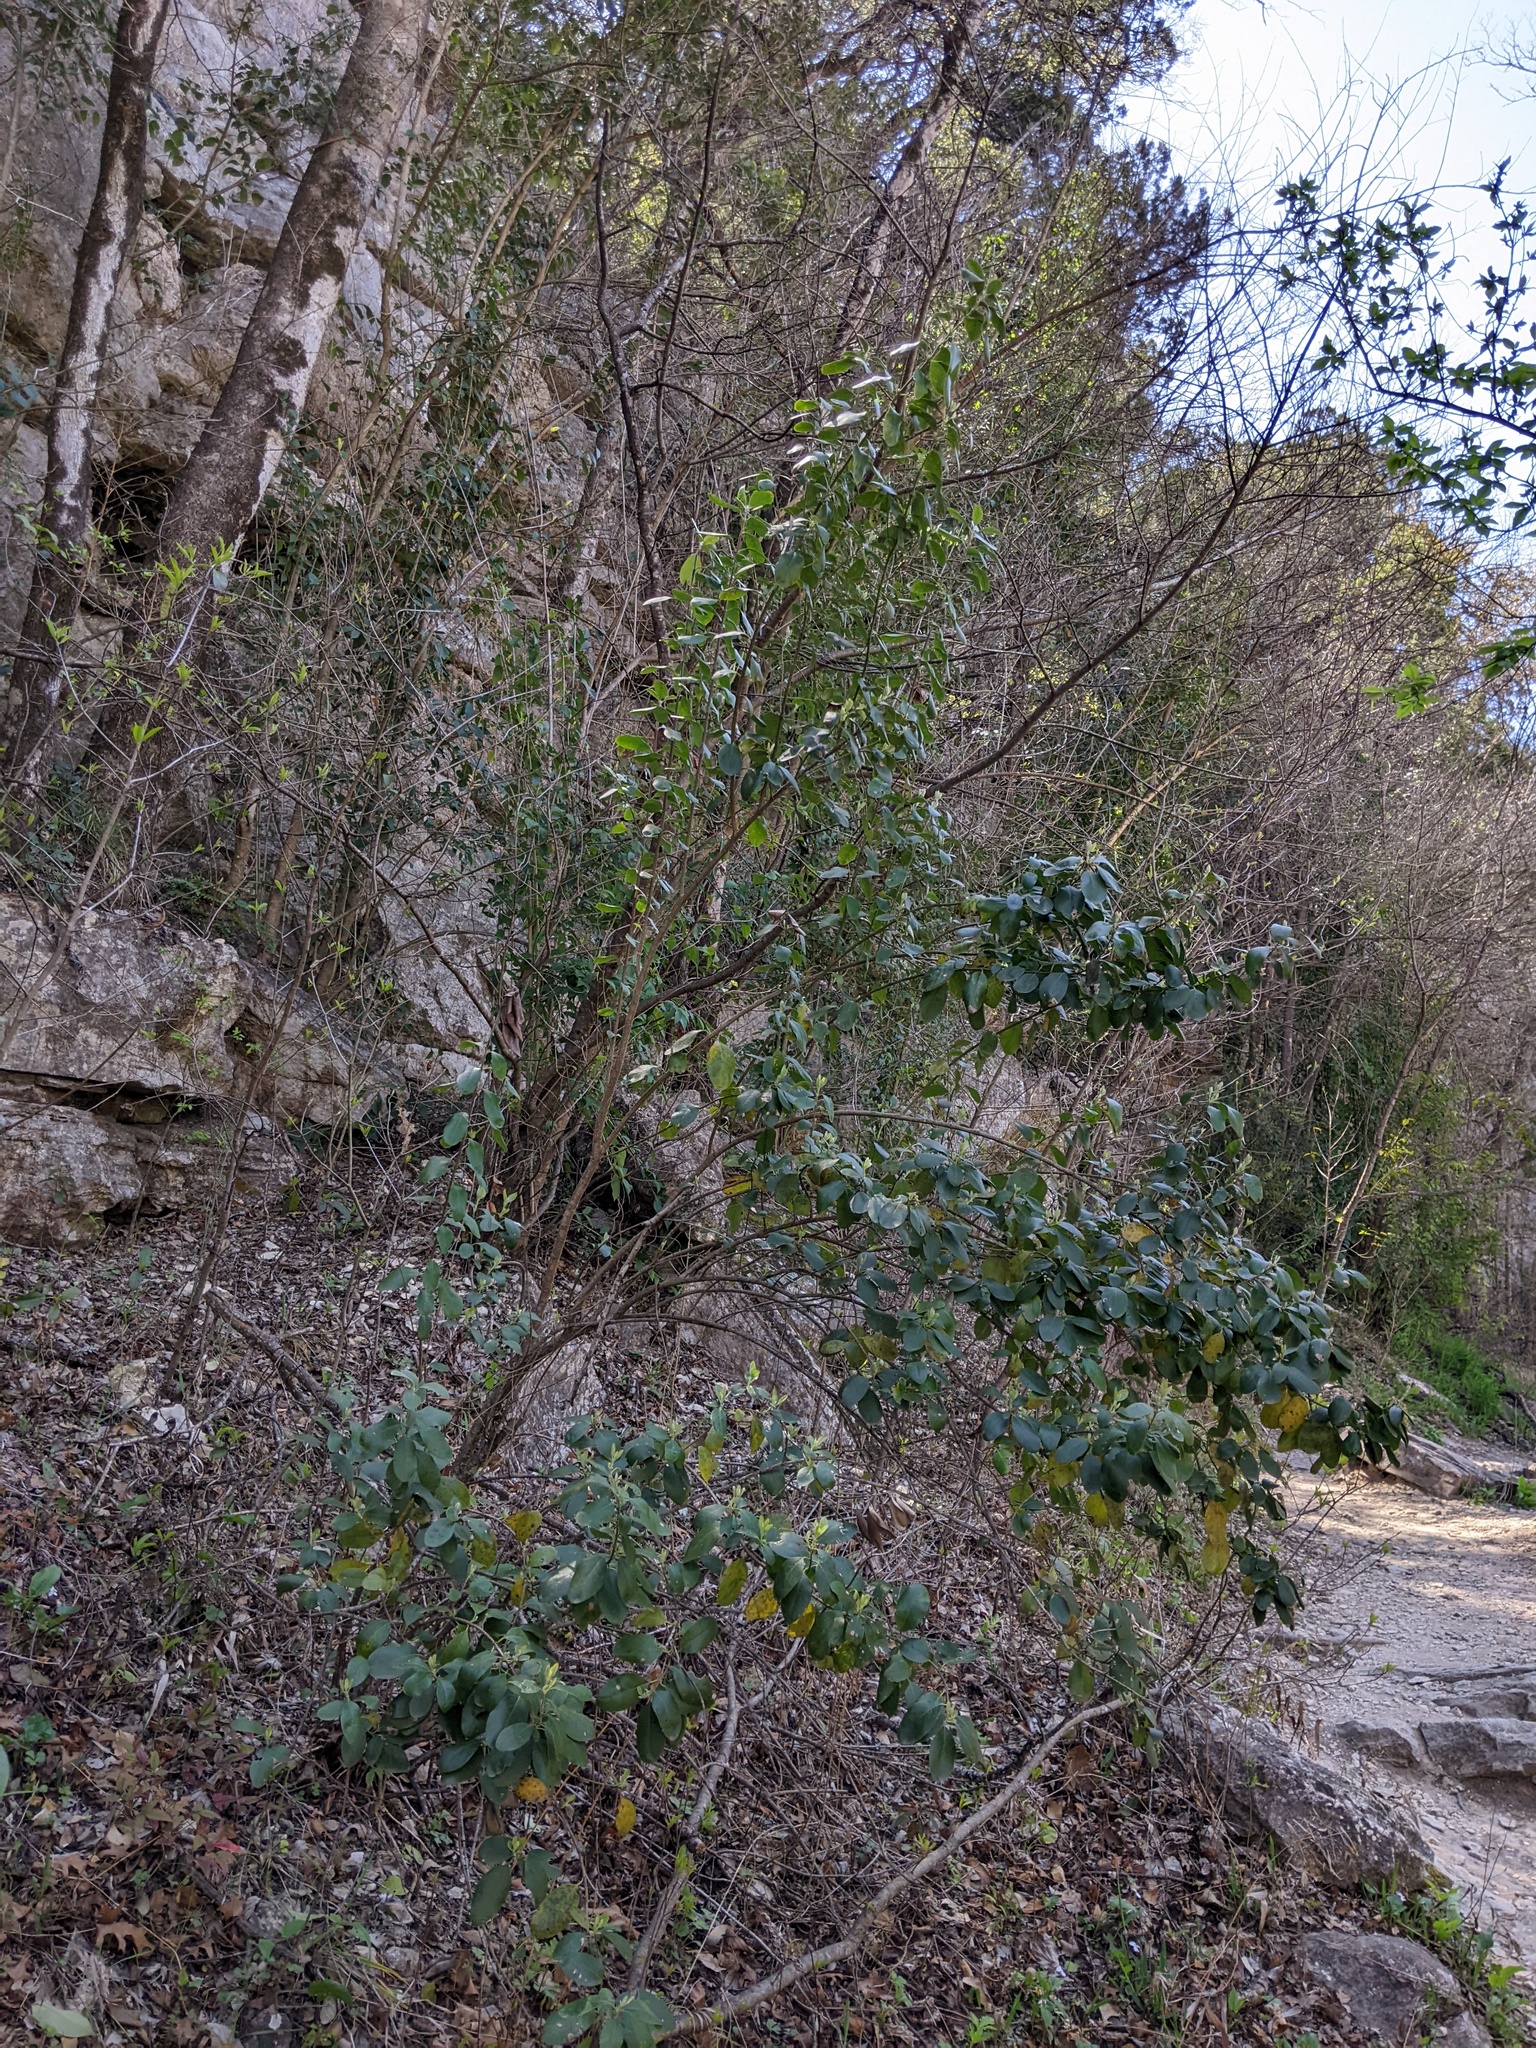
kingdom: Plantae
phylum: Tracheophyta
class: Magnoliopsida
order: Garryales
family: Garryaceae
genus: Garrya
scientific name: Garrya lindheimeri
